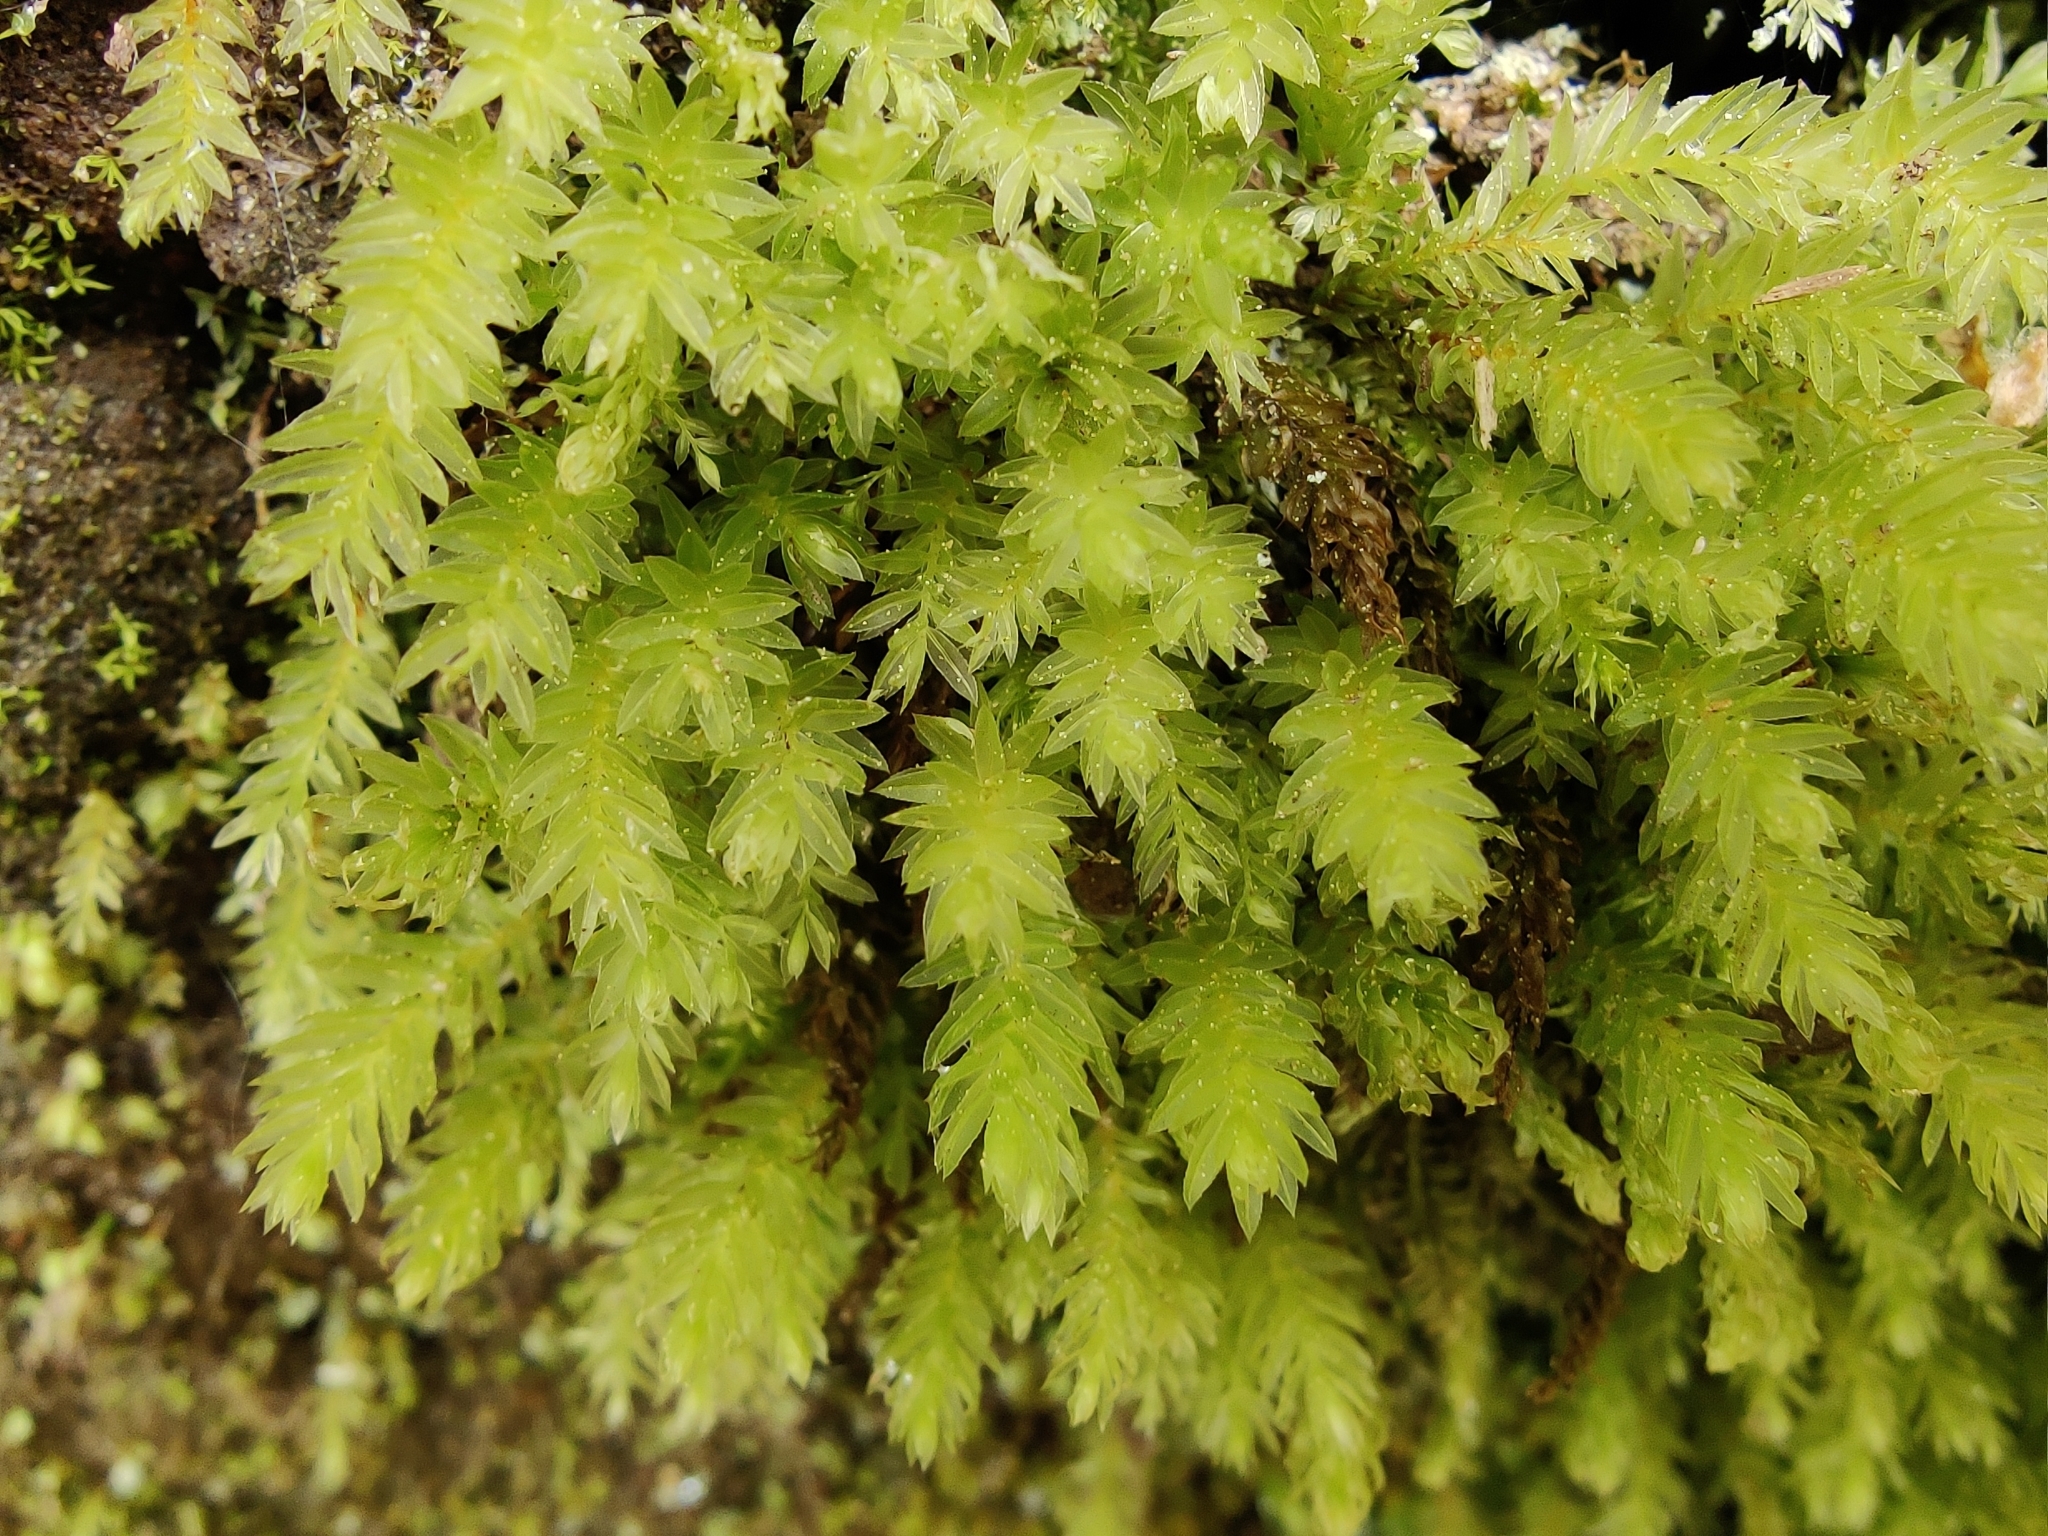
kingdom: Plantae
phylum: Bryophyta
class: Bryopsida
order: Bryales
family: Mniaceae
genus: Mnium
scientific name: Mnium hornum
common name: Swan's-neck leafy moss
